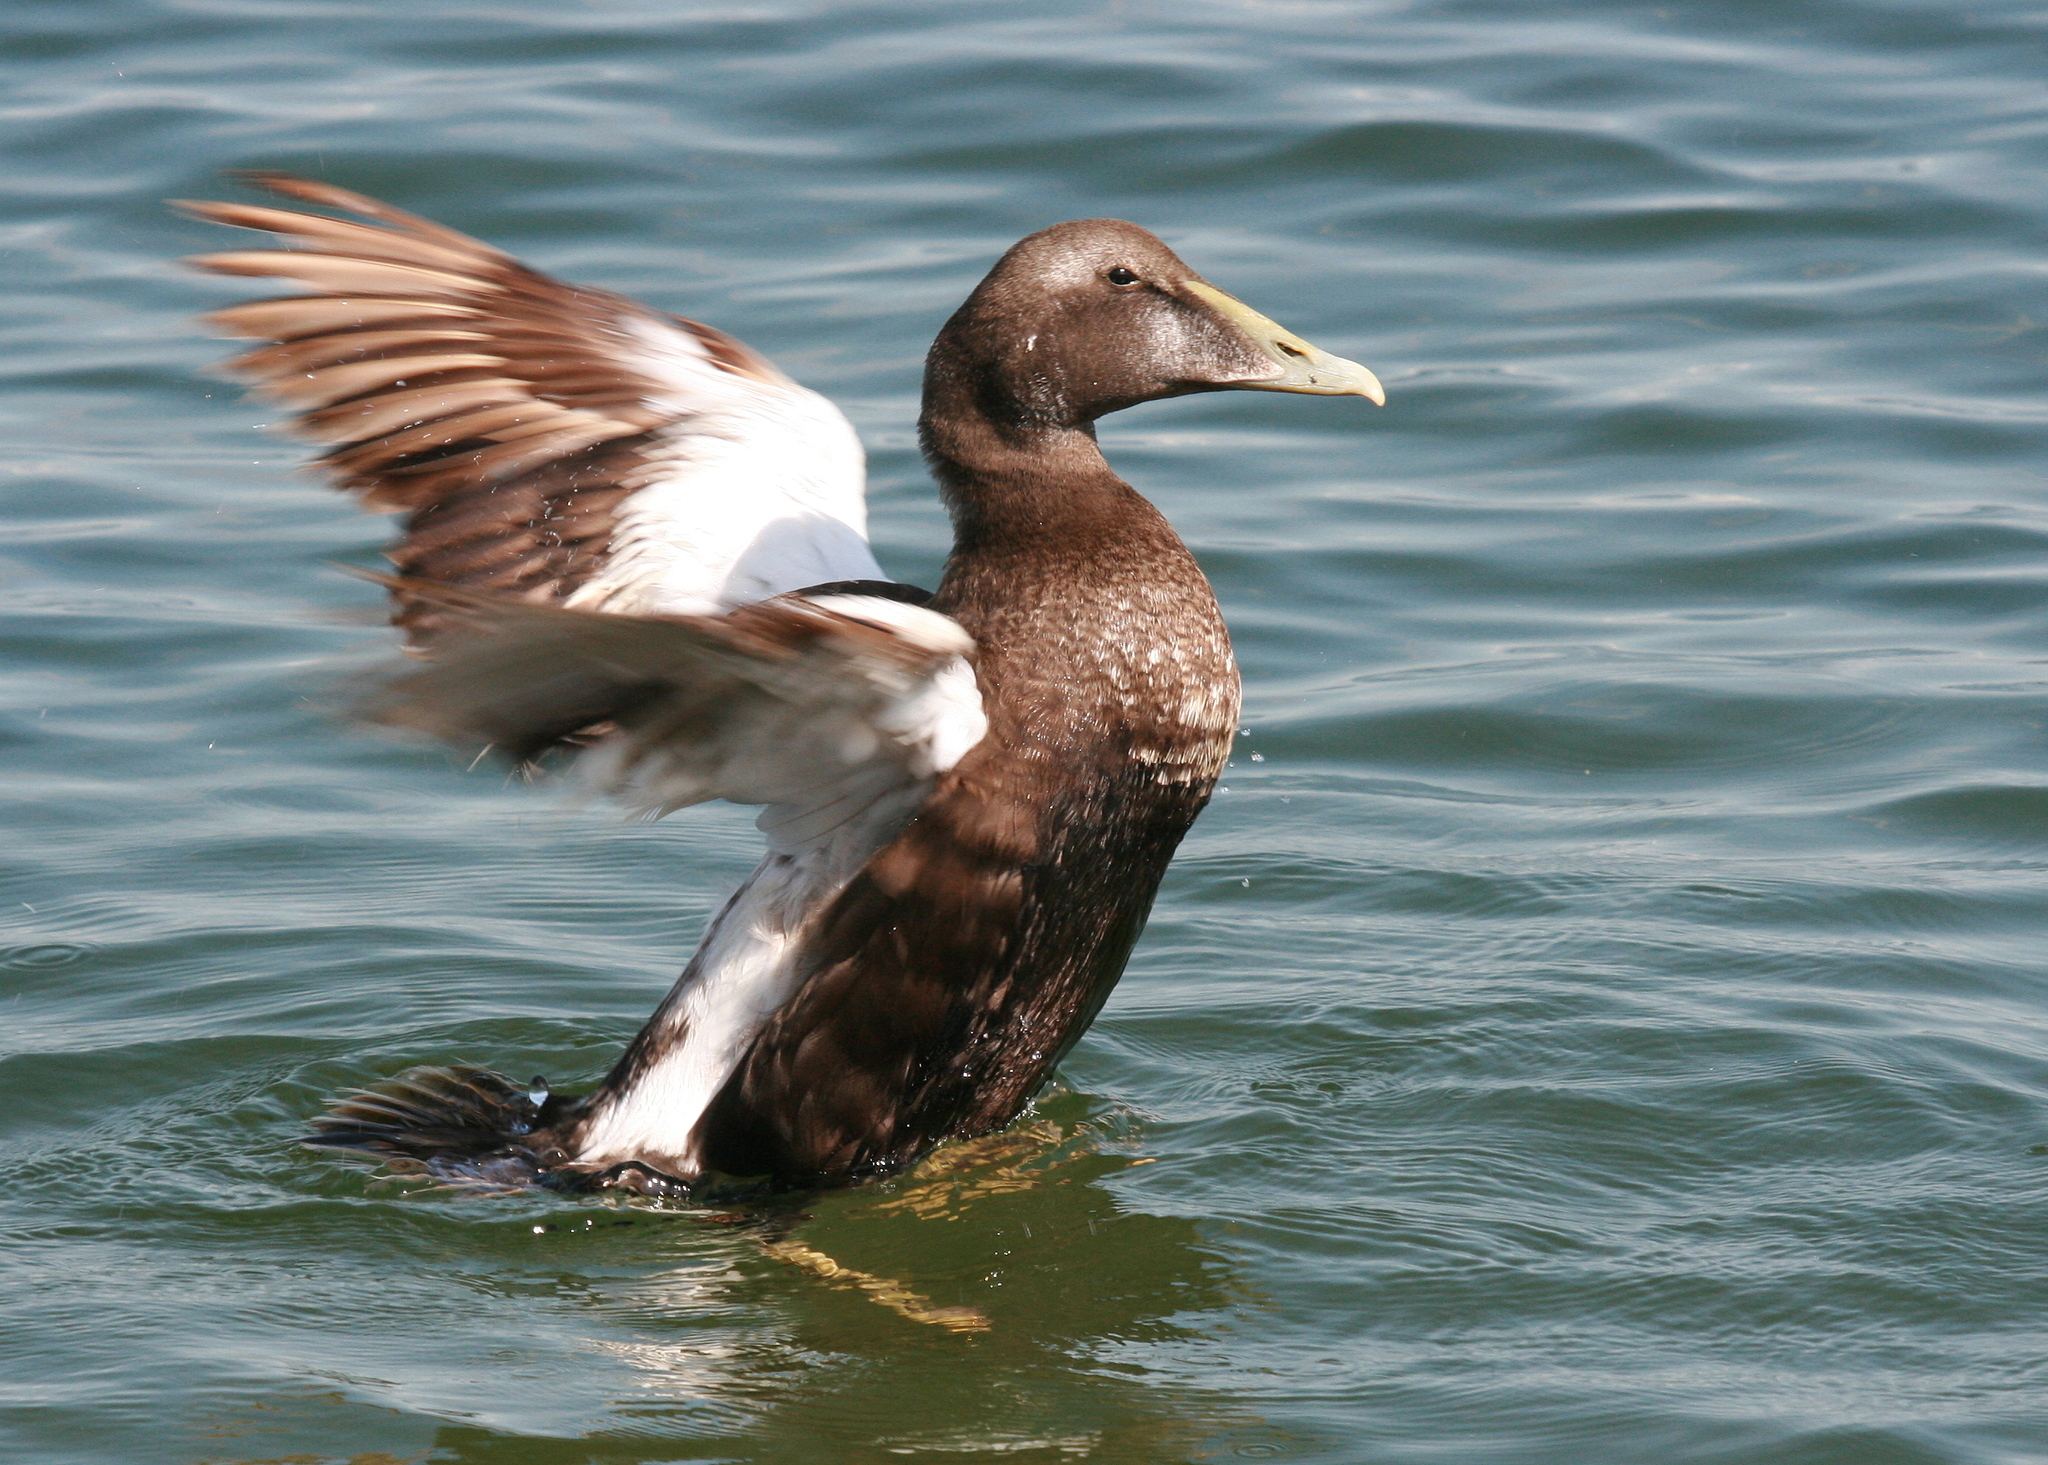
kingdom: Animalia
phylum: Chordata
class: Aves
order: Anseriformes
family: Anatidae
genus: Somateria
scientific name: Somateria mollissima
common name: Common eider
